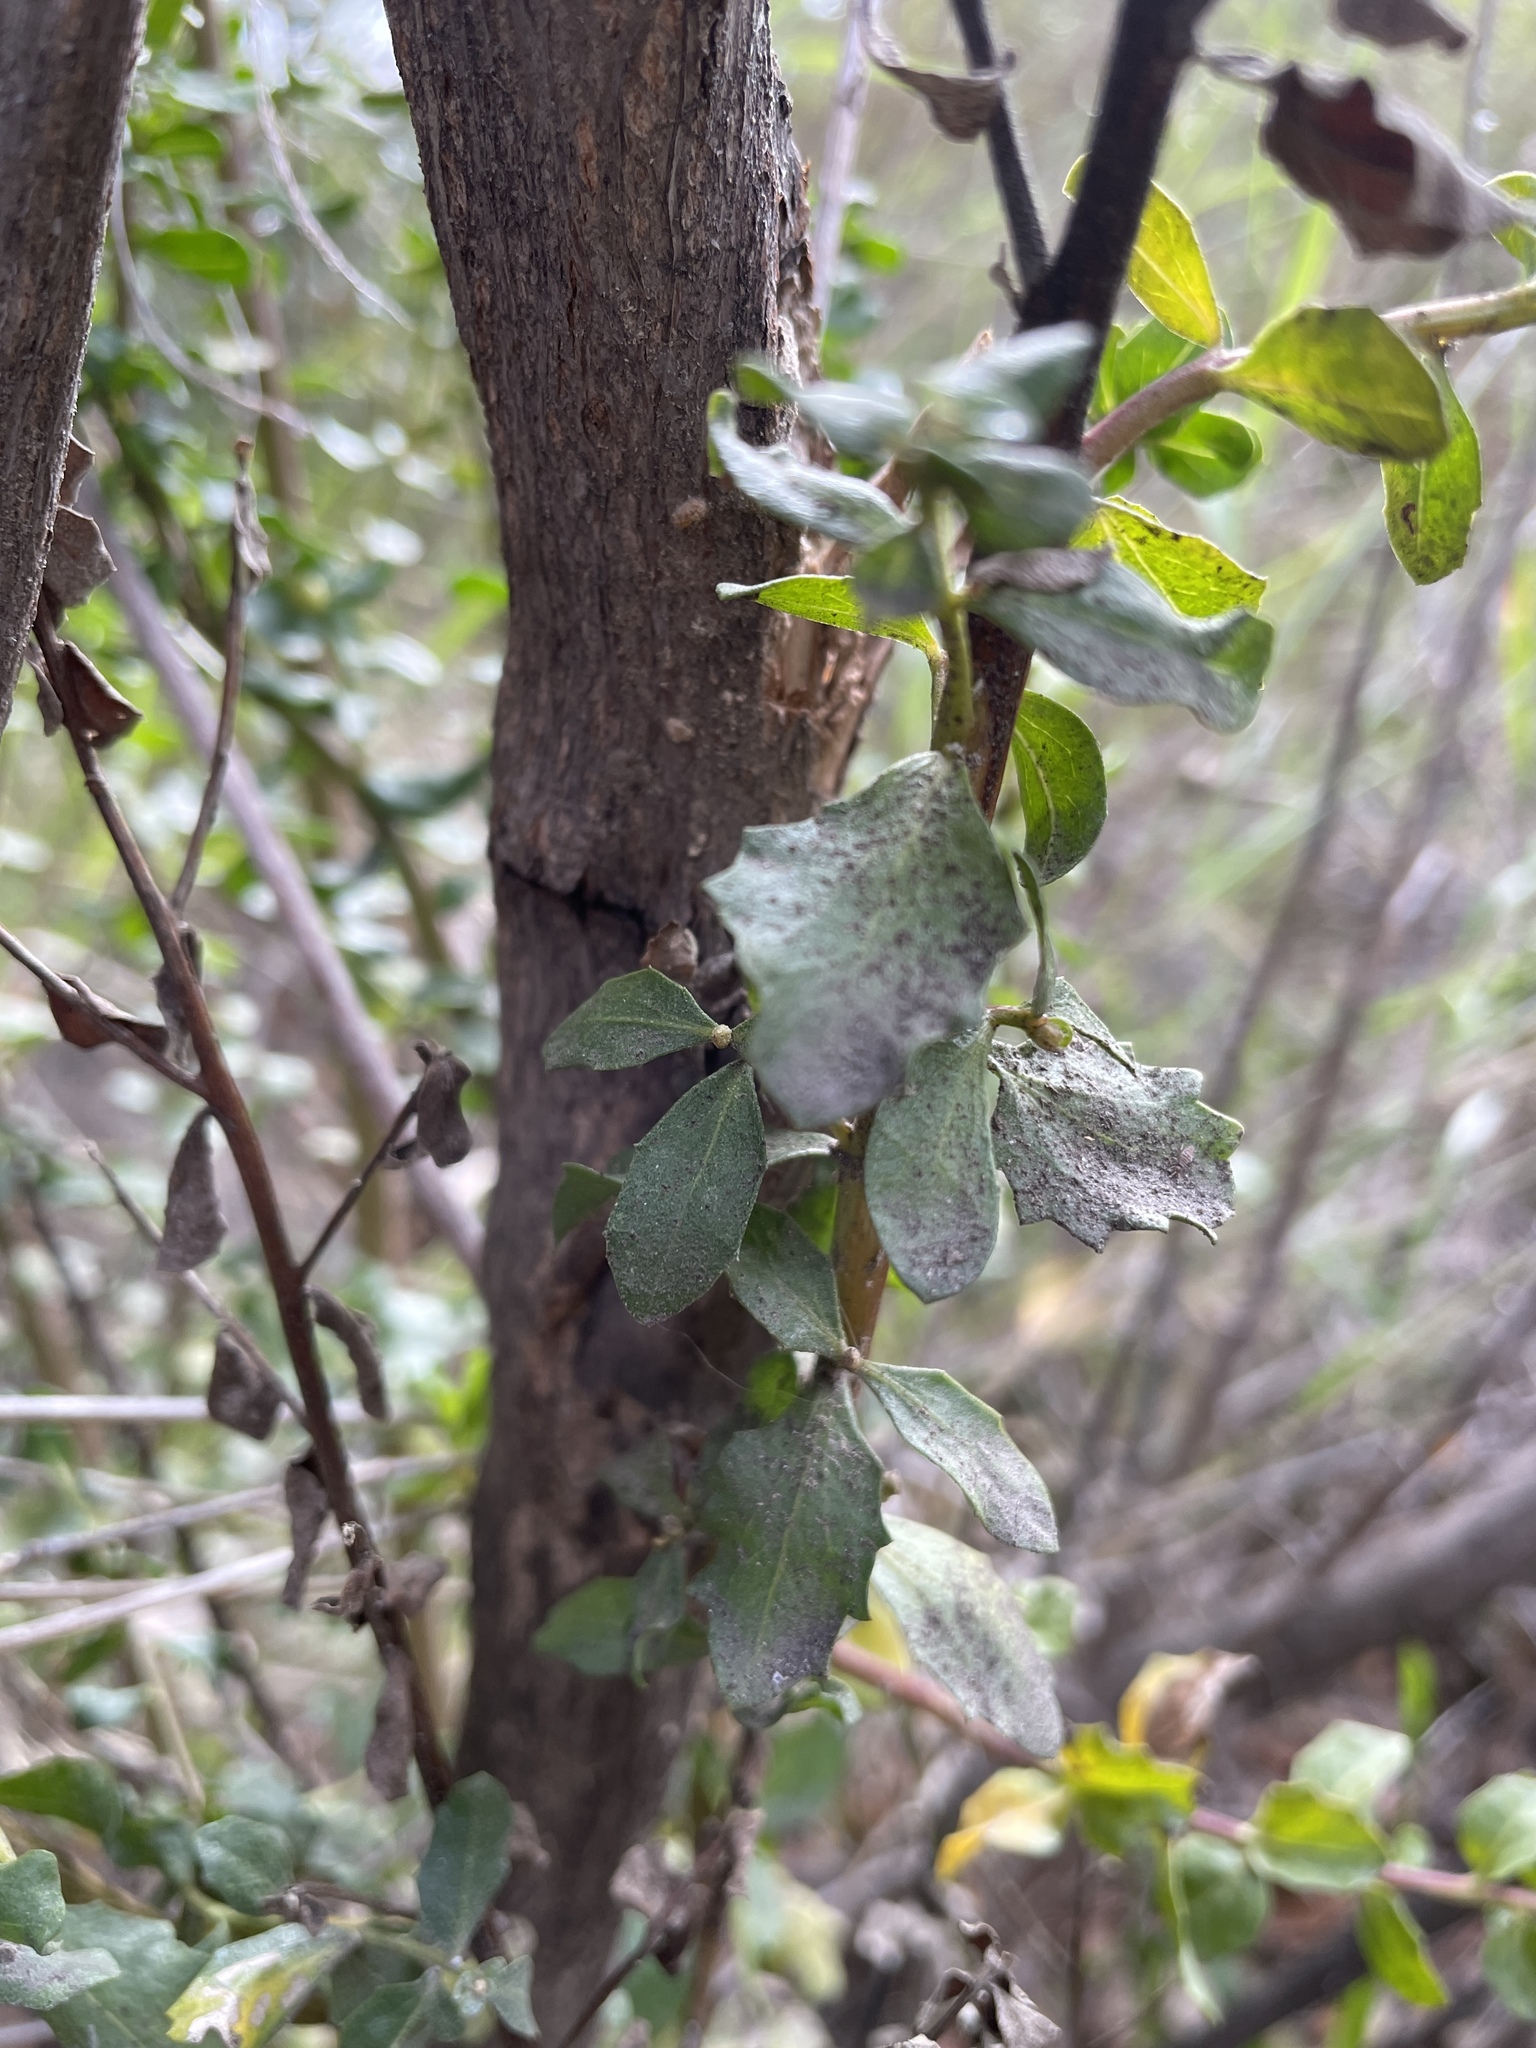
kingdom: Plantae
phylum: Tracheophyta
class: Magnoliopsida
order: Asterales
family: Asteraceae
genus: Baccharis
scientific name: Baccharis pilularis
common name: Coyotebrush
